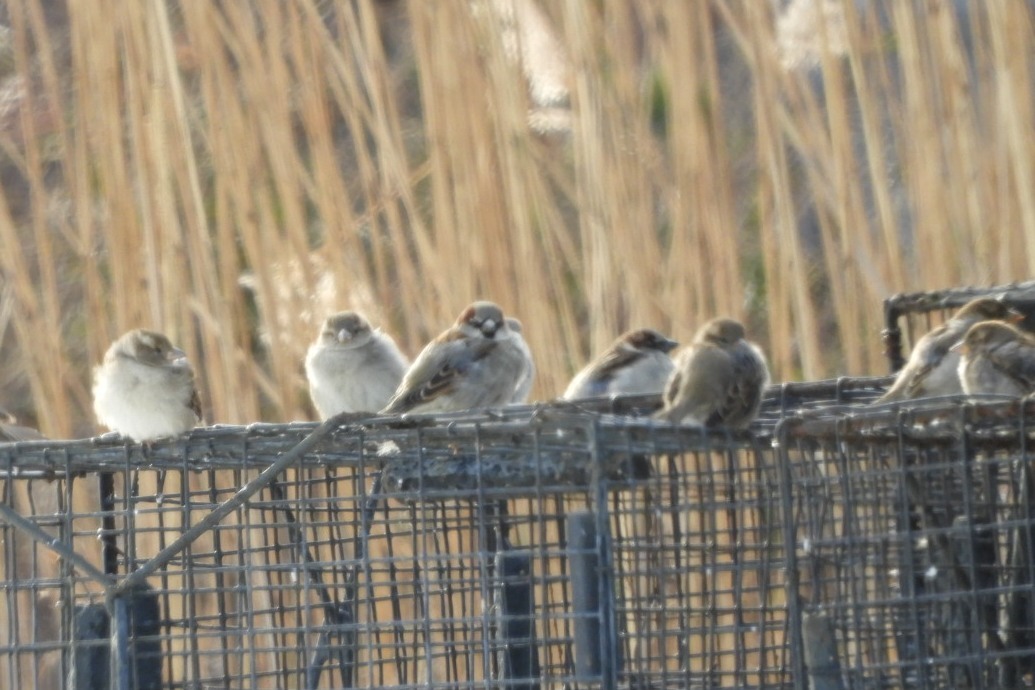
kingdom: Animalia
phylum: Chordata
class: Aves
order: Passeriformes
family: Passeridae
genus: Passer
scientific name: Passer domesticus
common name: House sparrow
